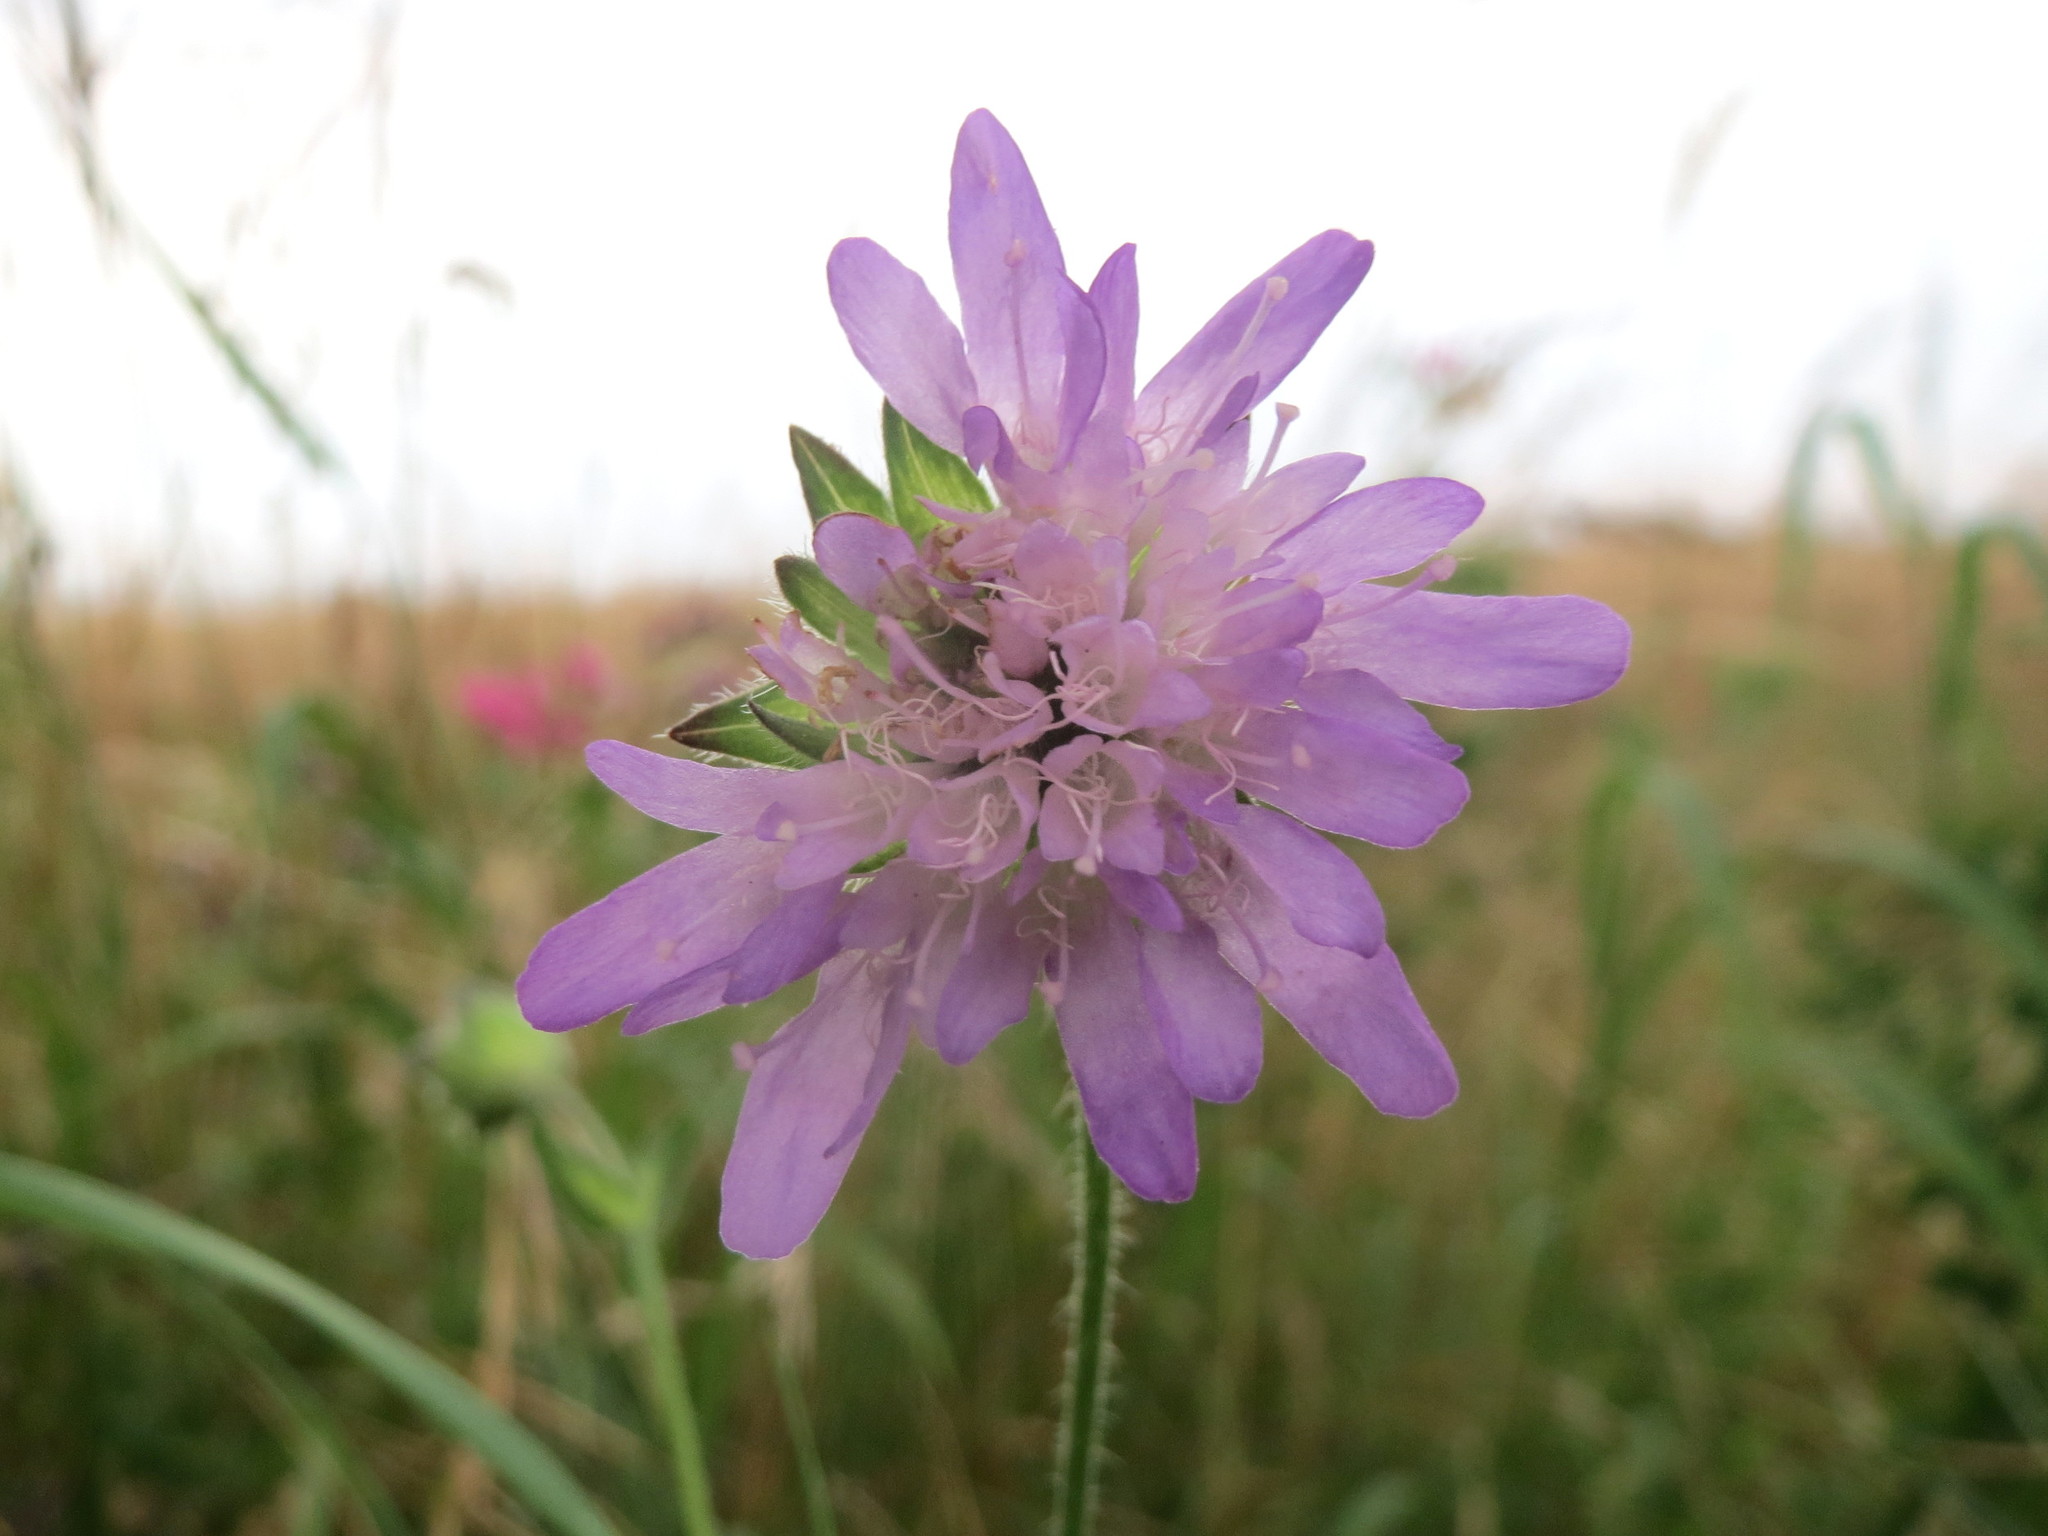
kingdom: Plantae
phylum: Tracheophyta
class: Magnoliopsida
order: Dipsacales
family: Caprifoliaceae
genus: Knautia
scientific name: Knautia arvensis
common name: Field scabiosa
